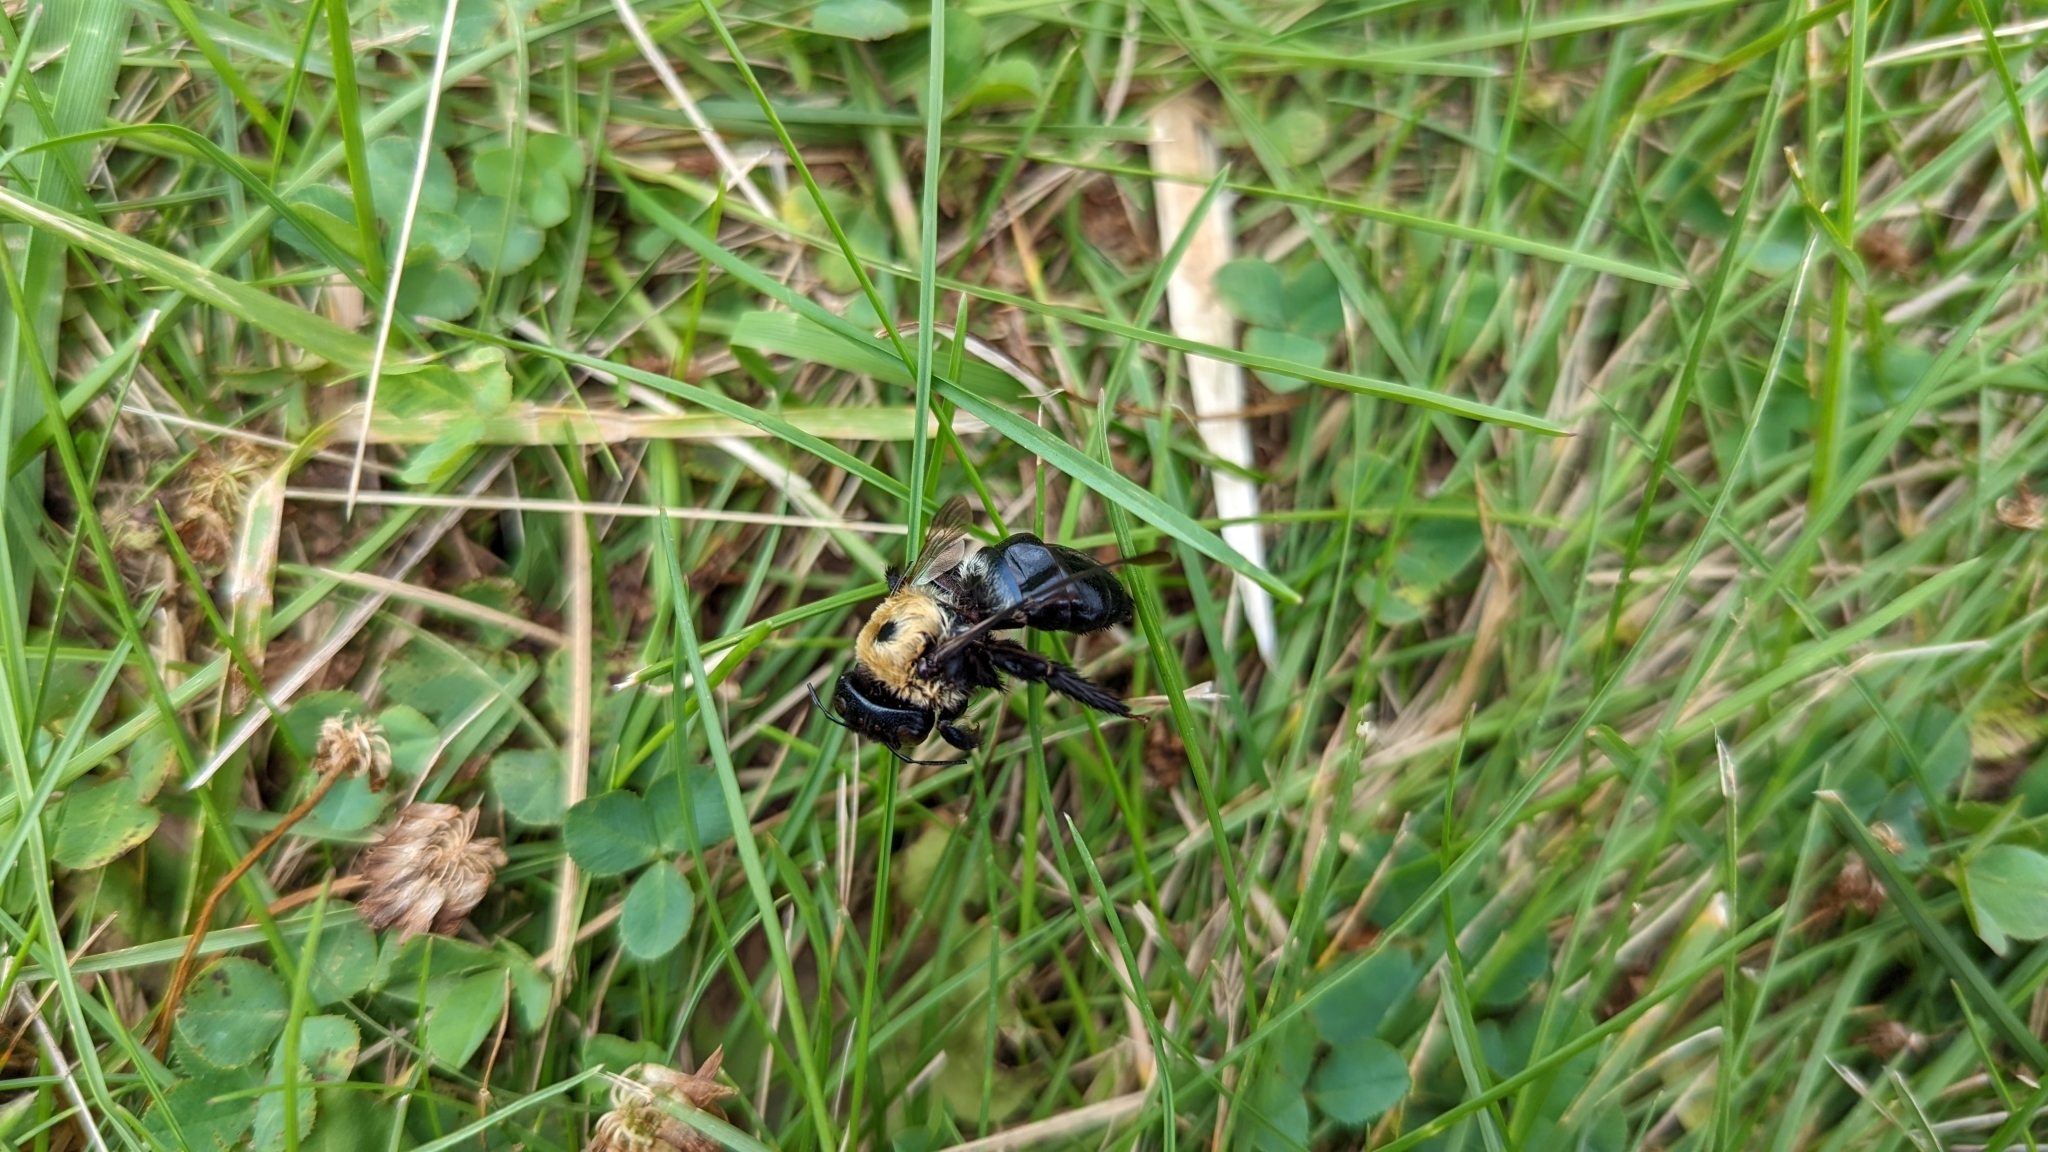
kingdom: Animalia
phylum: Arthropoda
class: Insecta
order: Hymenoptera
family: Apidae
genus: Xylocopa
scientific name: Xylocopa virginica
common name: Carpenter bee
